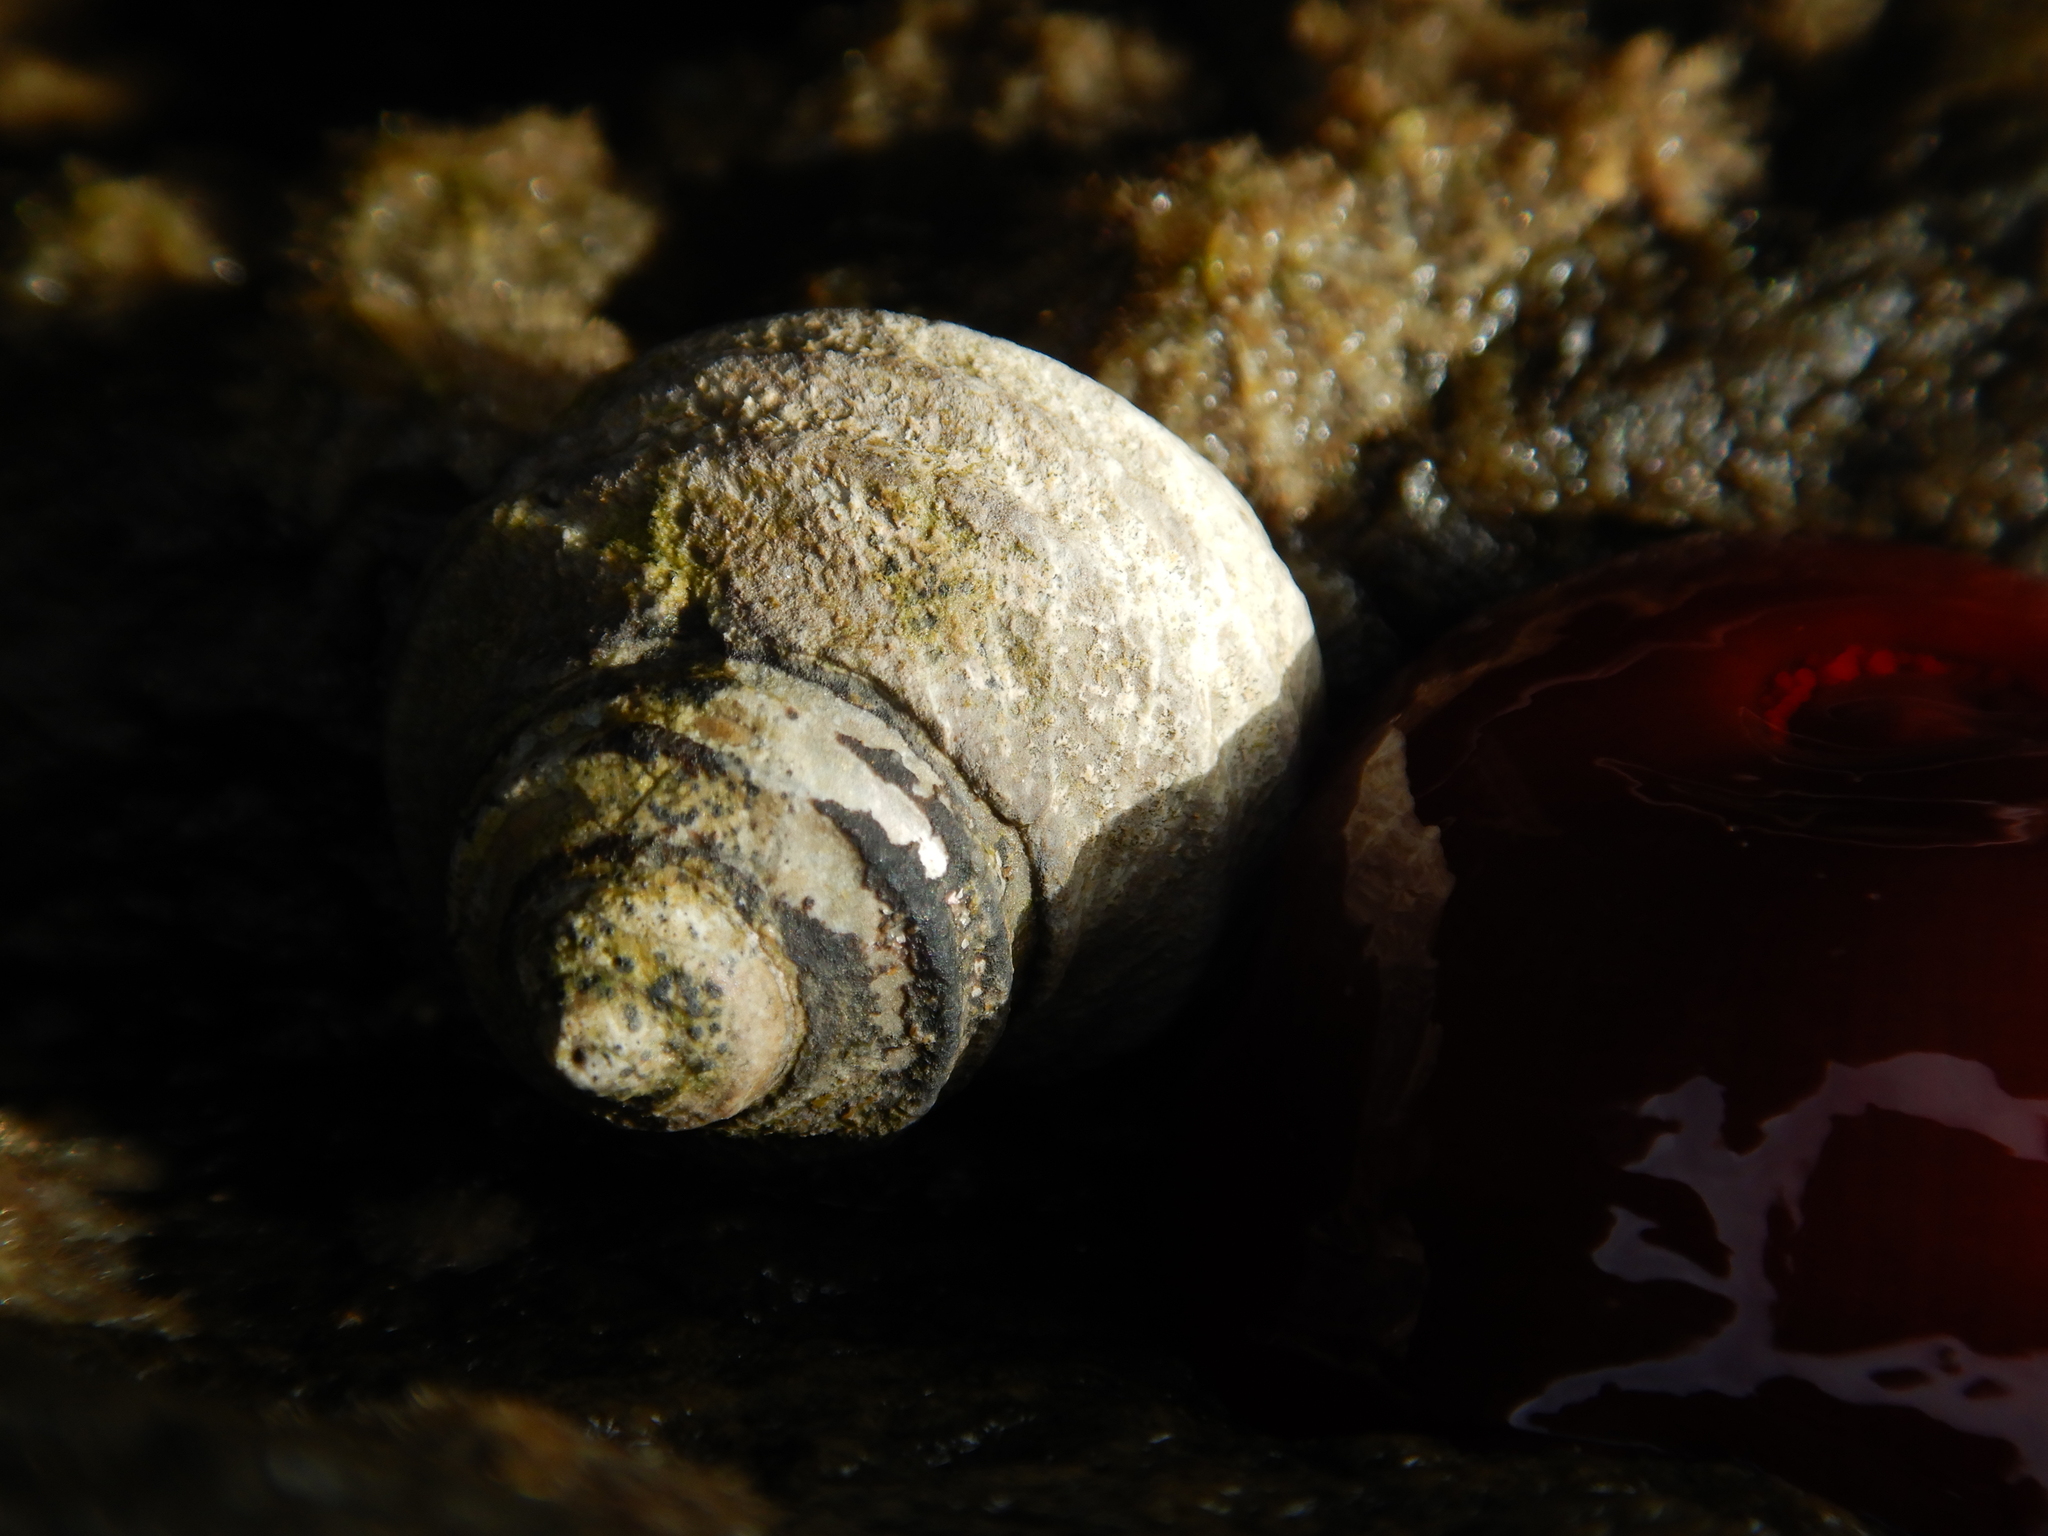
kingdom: Animalia
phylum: Mollusca
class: Gastropoda
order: Trochida
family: Trochidae
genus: Austrocochlea
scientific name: Austrocochlea constricta
